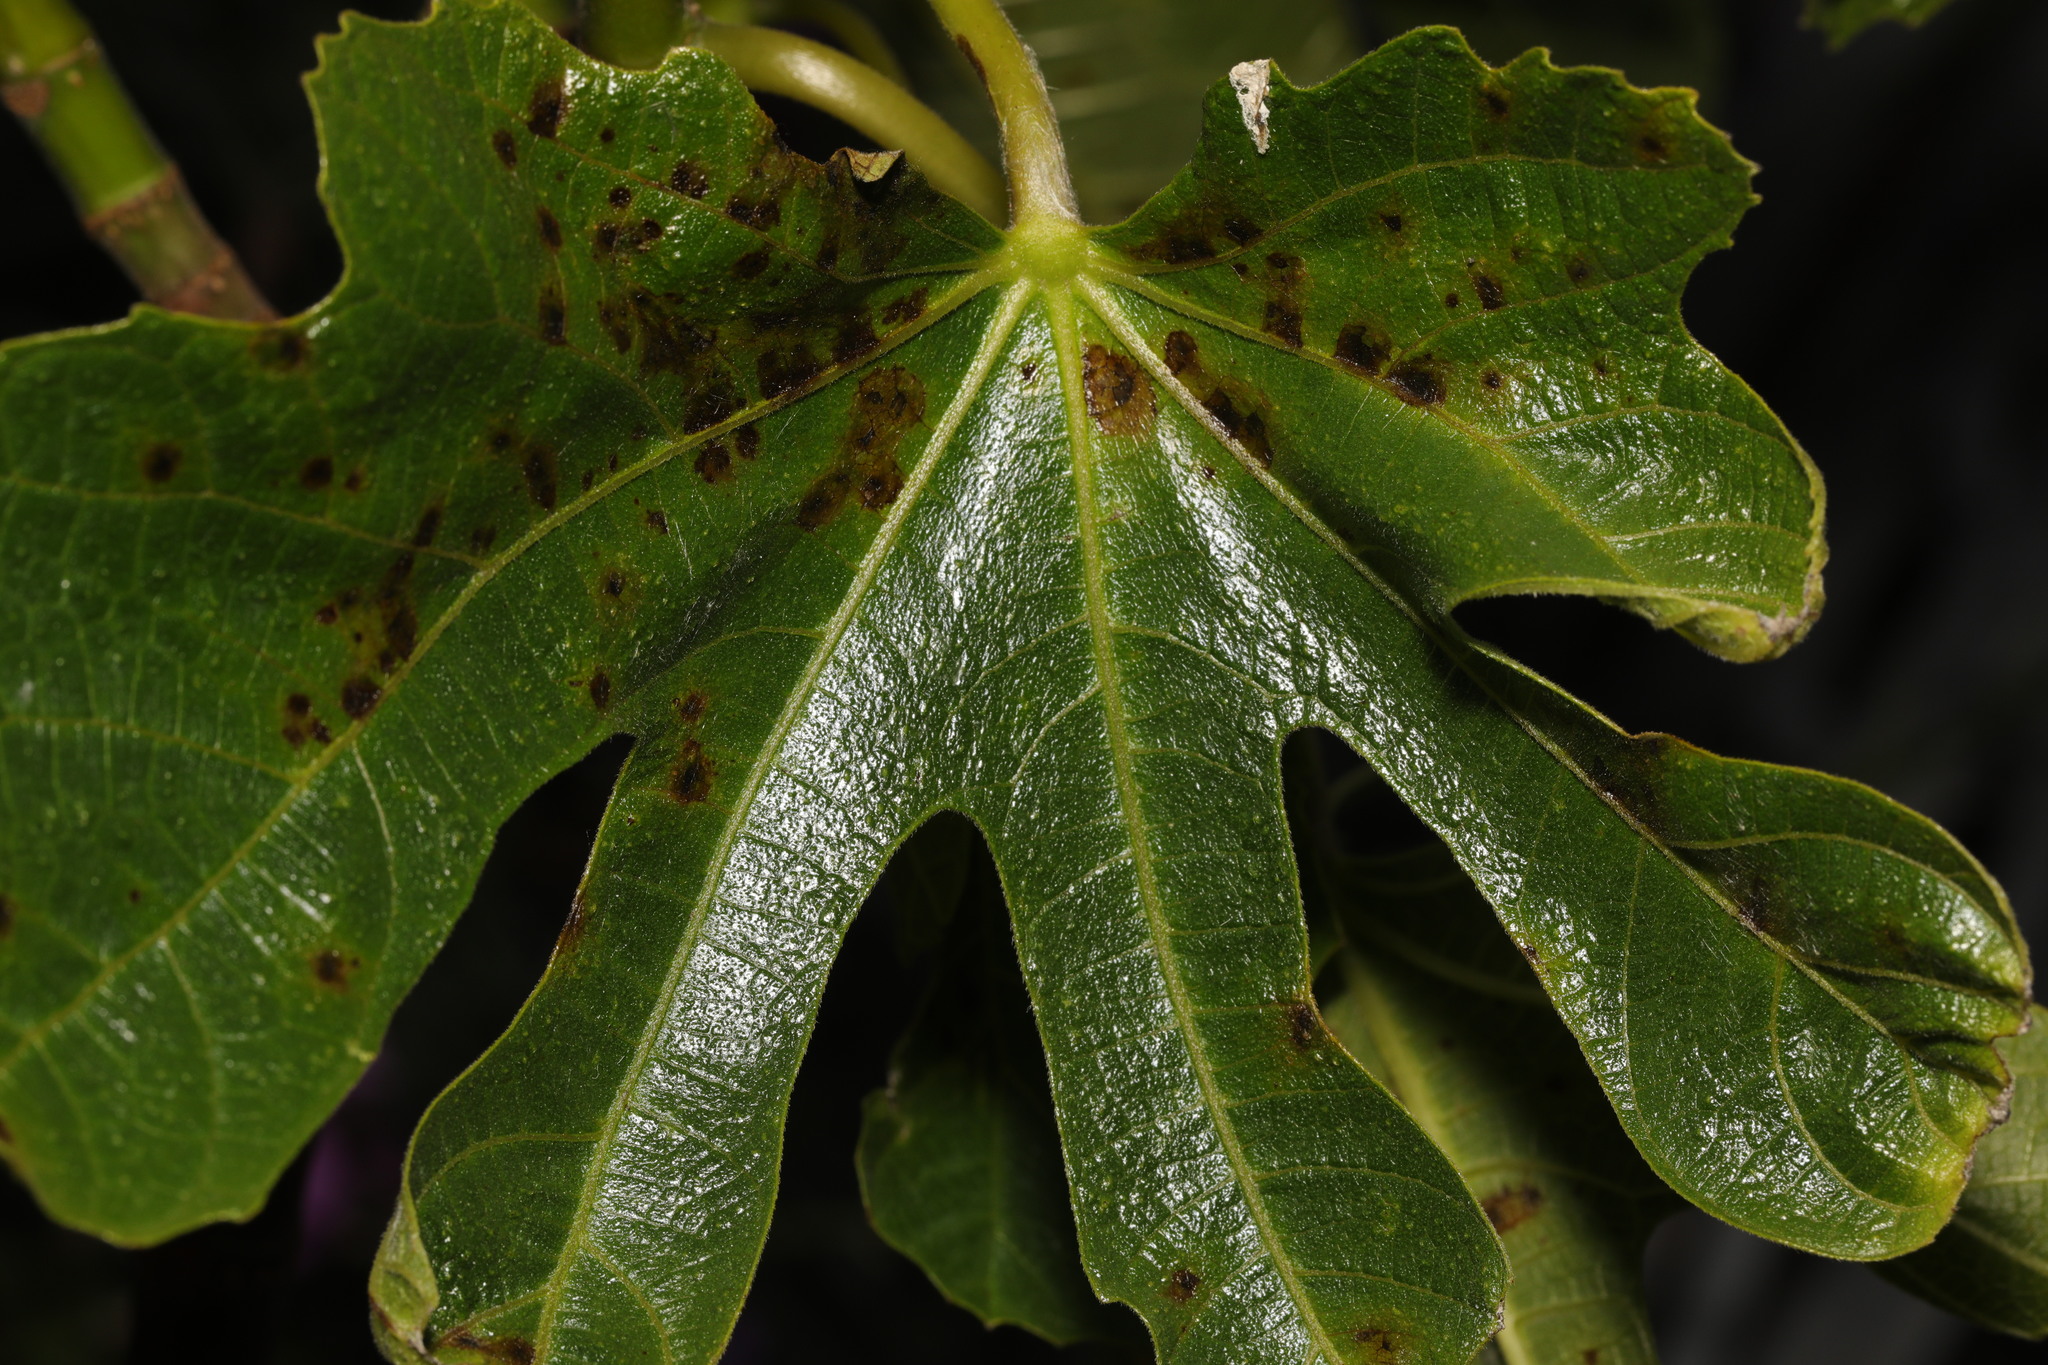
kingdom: Plantae
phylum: Tracheophyta
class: Magnoliopsida
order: Rosales
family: Moraceae
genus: Ficus
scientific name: Ficus carica
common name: Fig
